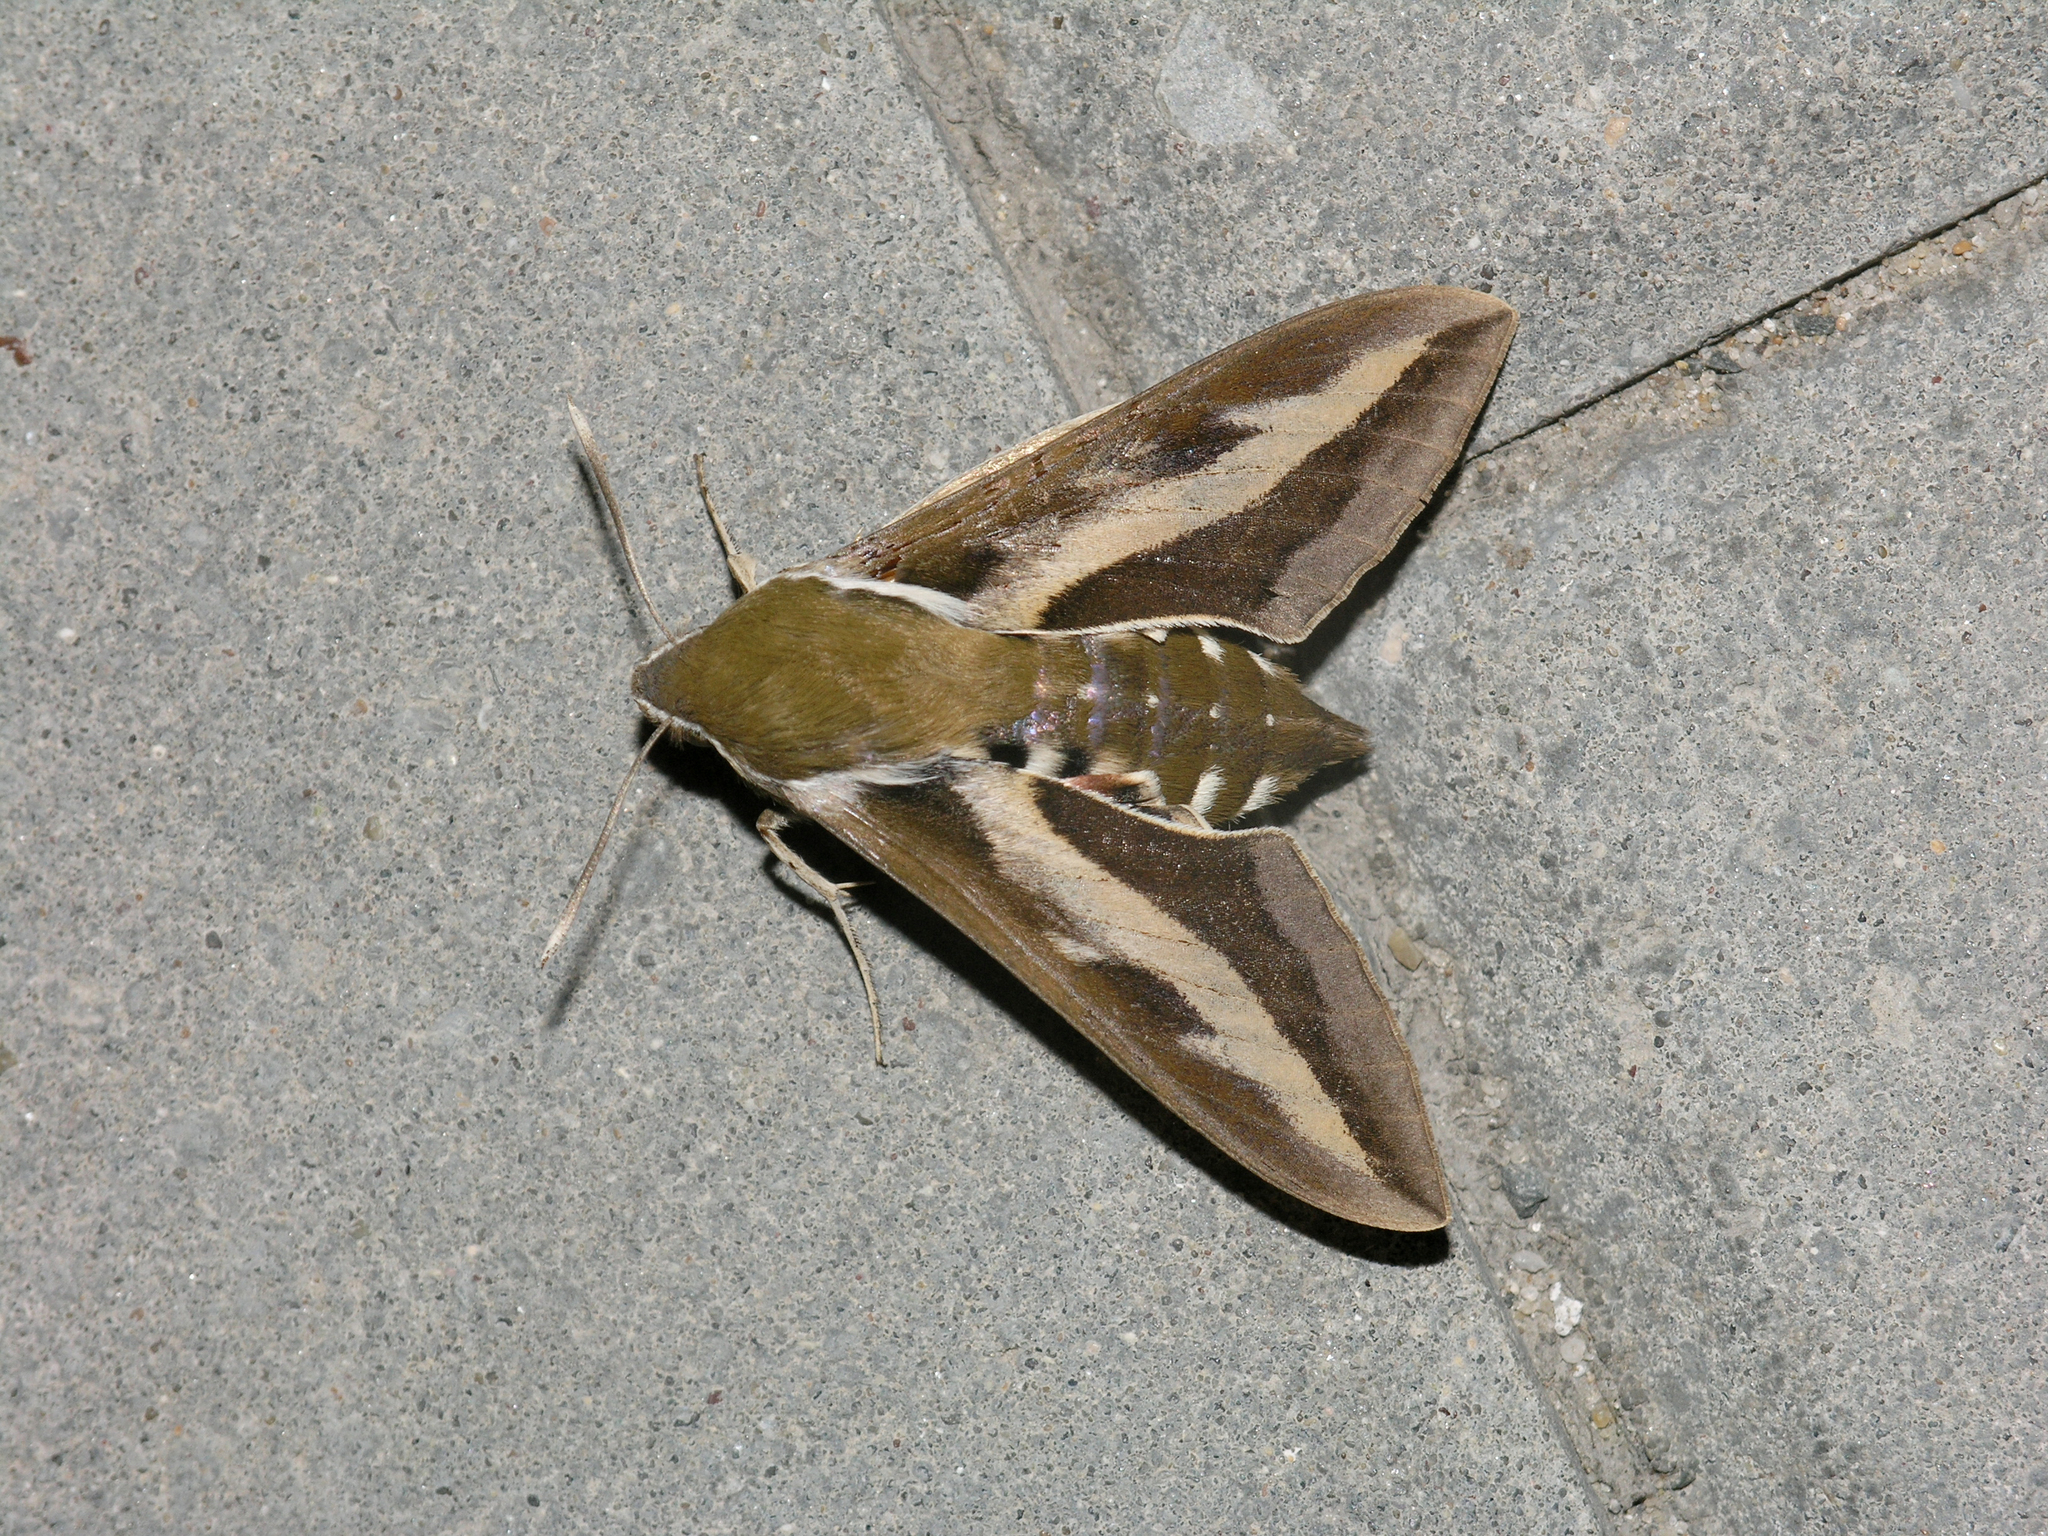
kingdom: Animalia
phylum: Arthropoda
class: Insecta
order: Lepidoptera
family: Sphingidae
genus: Hyles
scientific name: Hyles gallii
